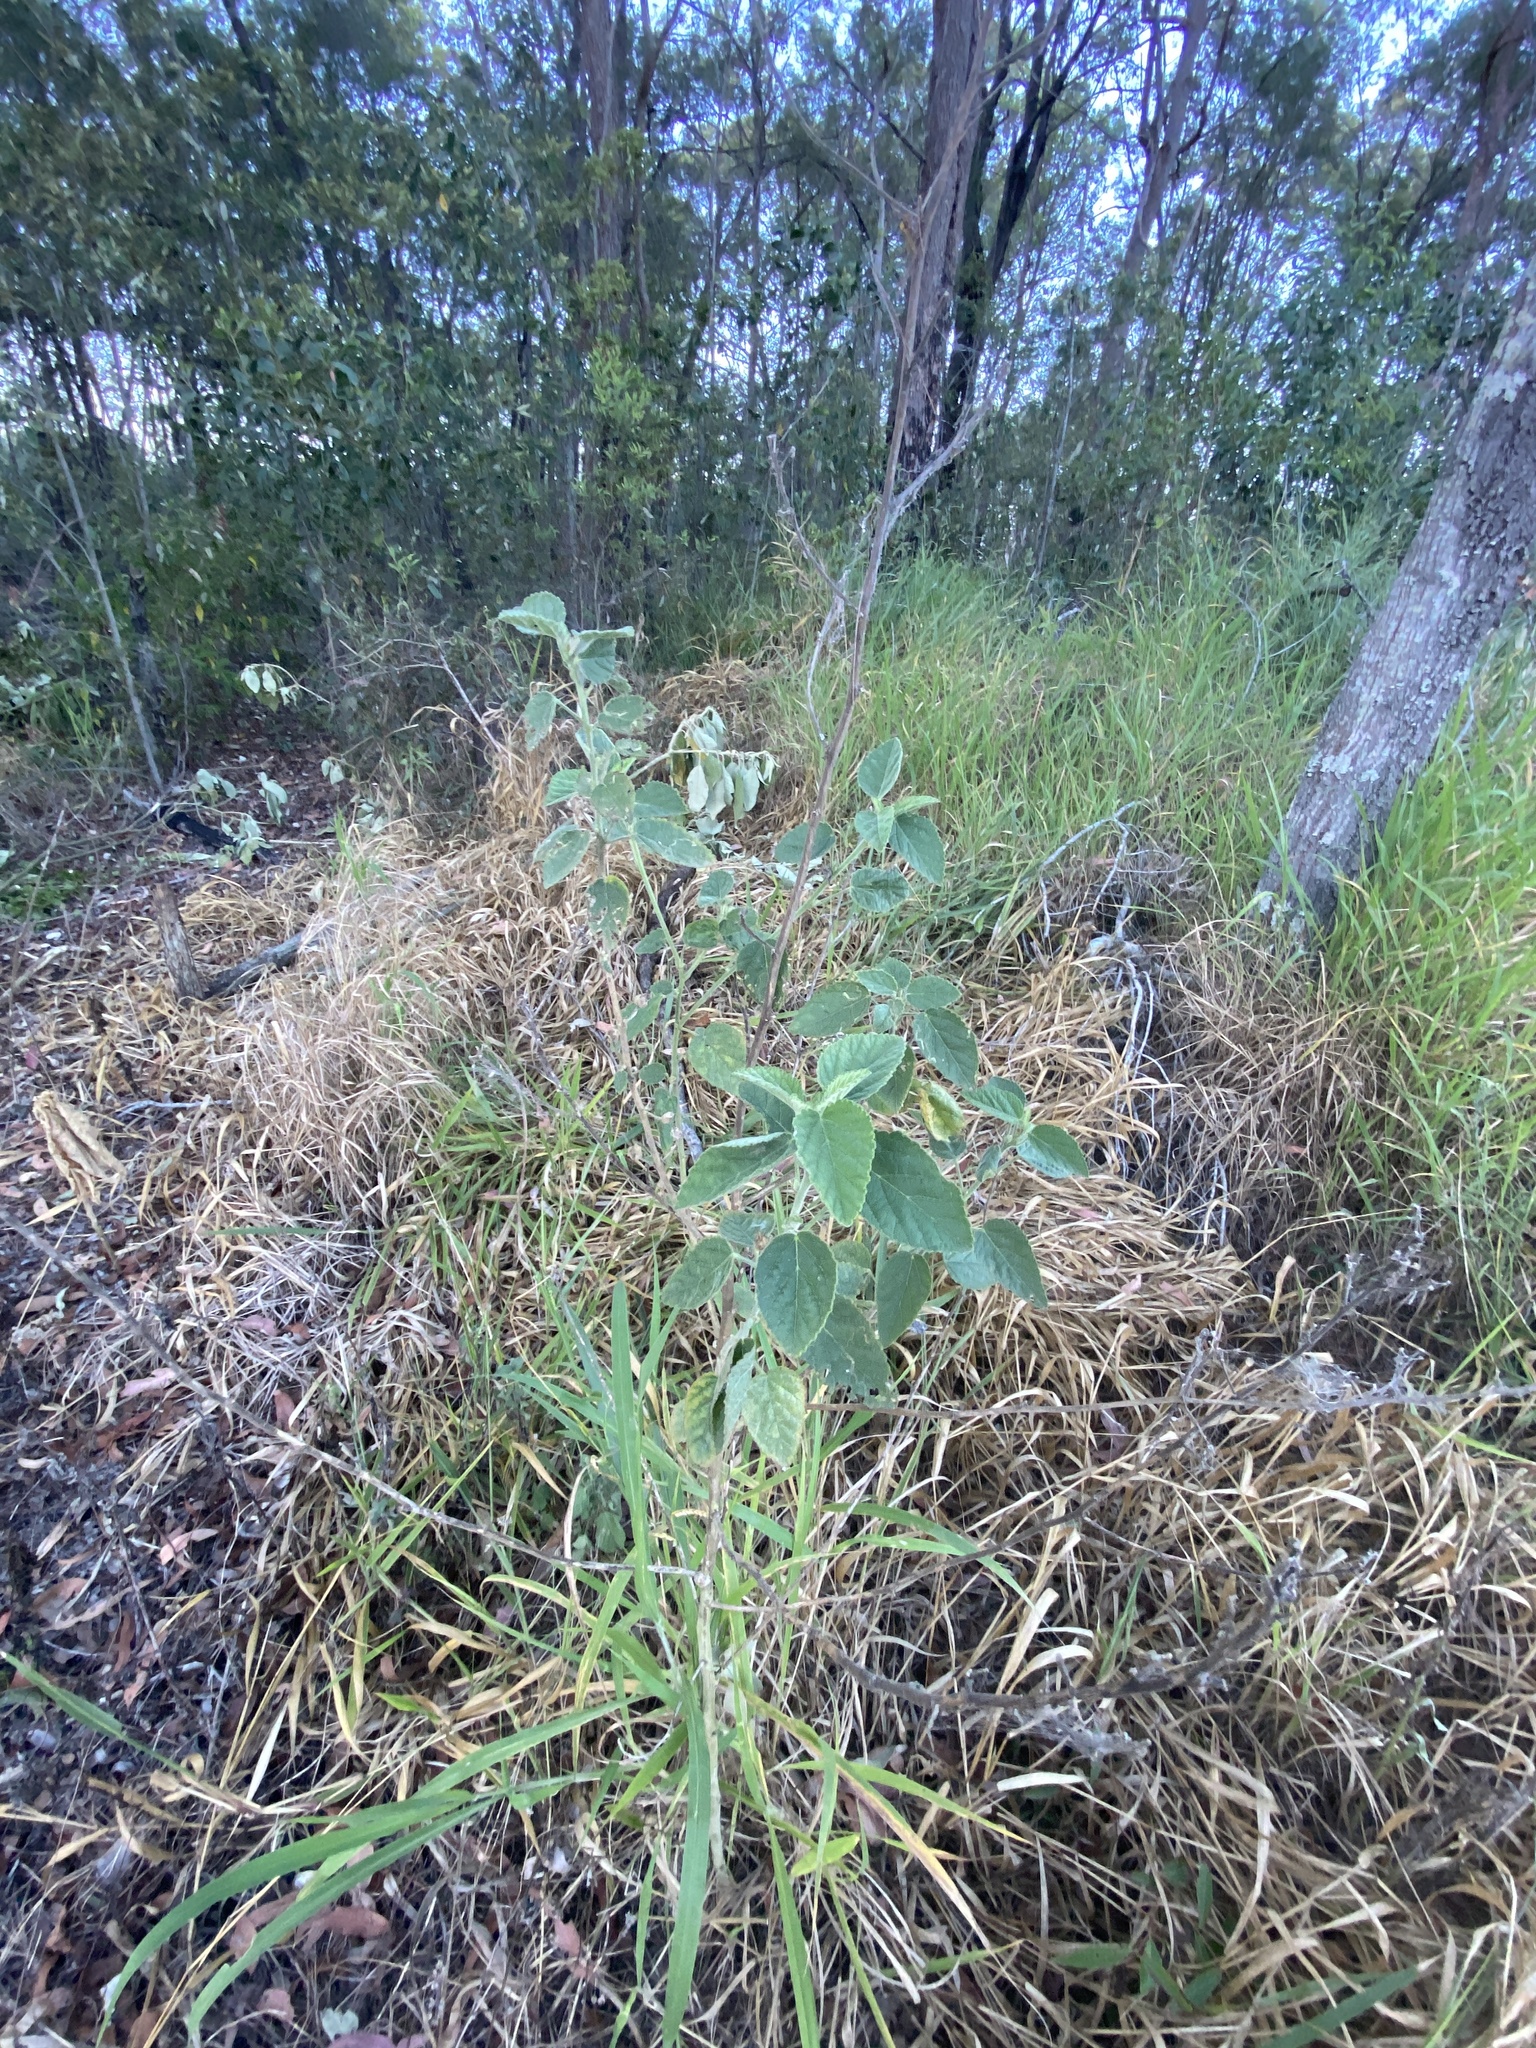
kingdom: Plantae
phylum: Tracheophyta
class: Magnoliopsida
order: Malvales
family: Malvaceae
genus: Sida
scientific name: Sida cordifolia
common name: Ilima
